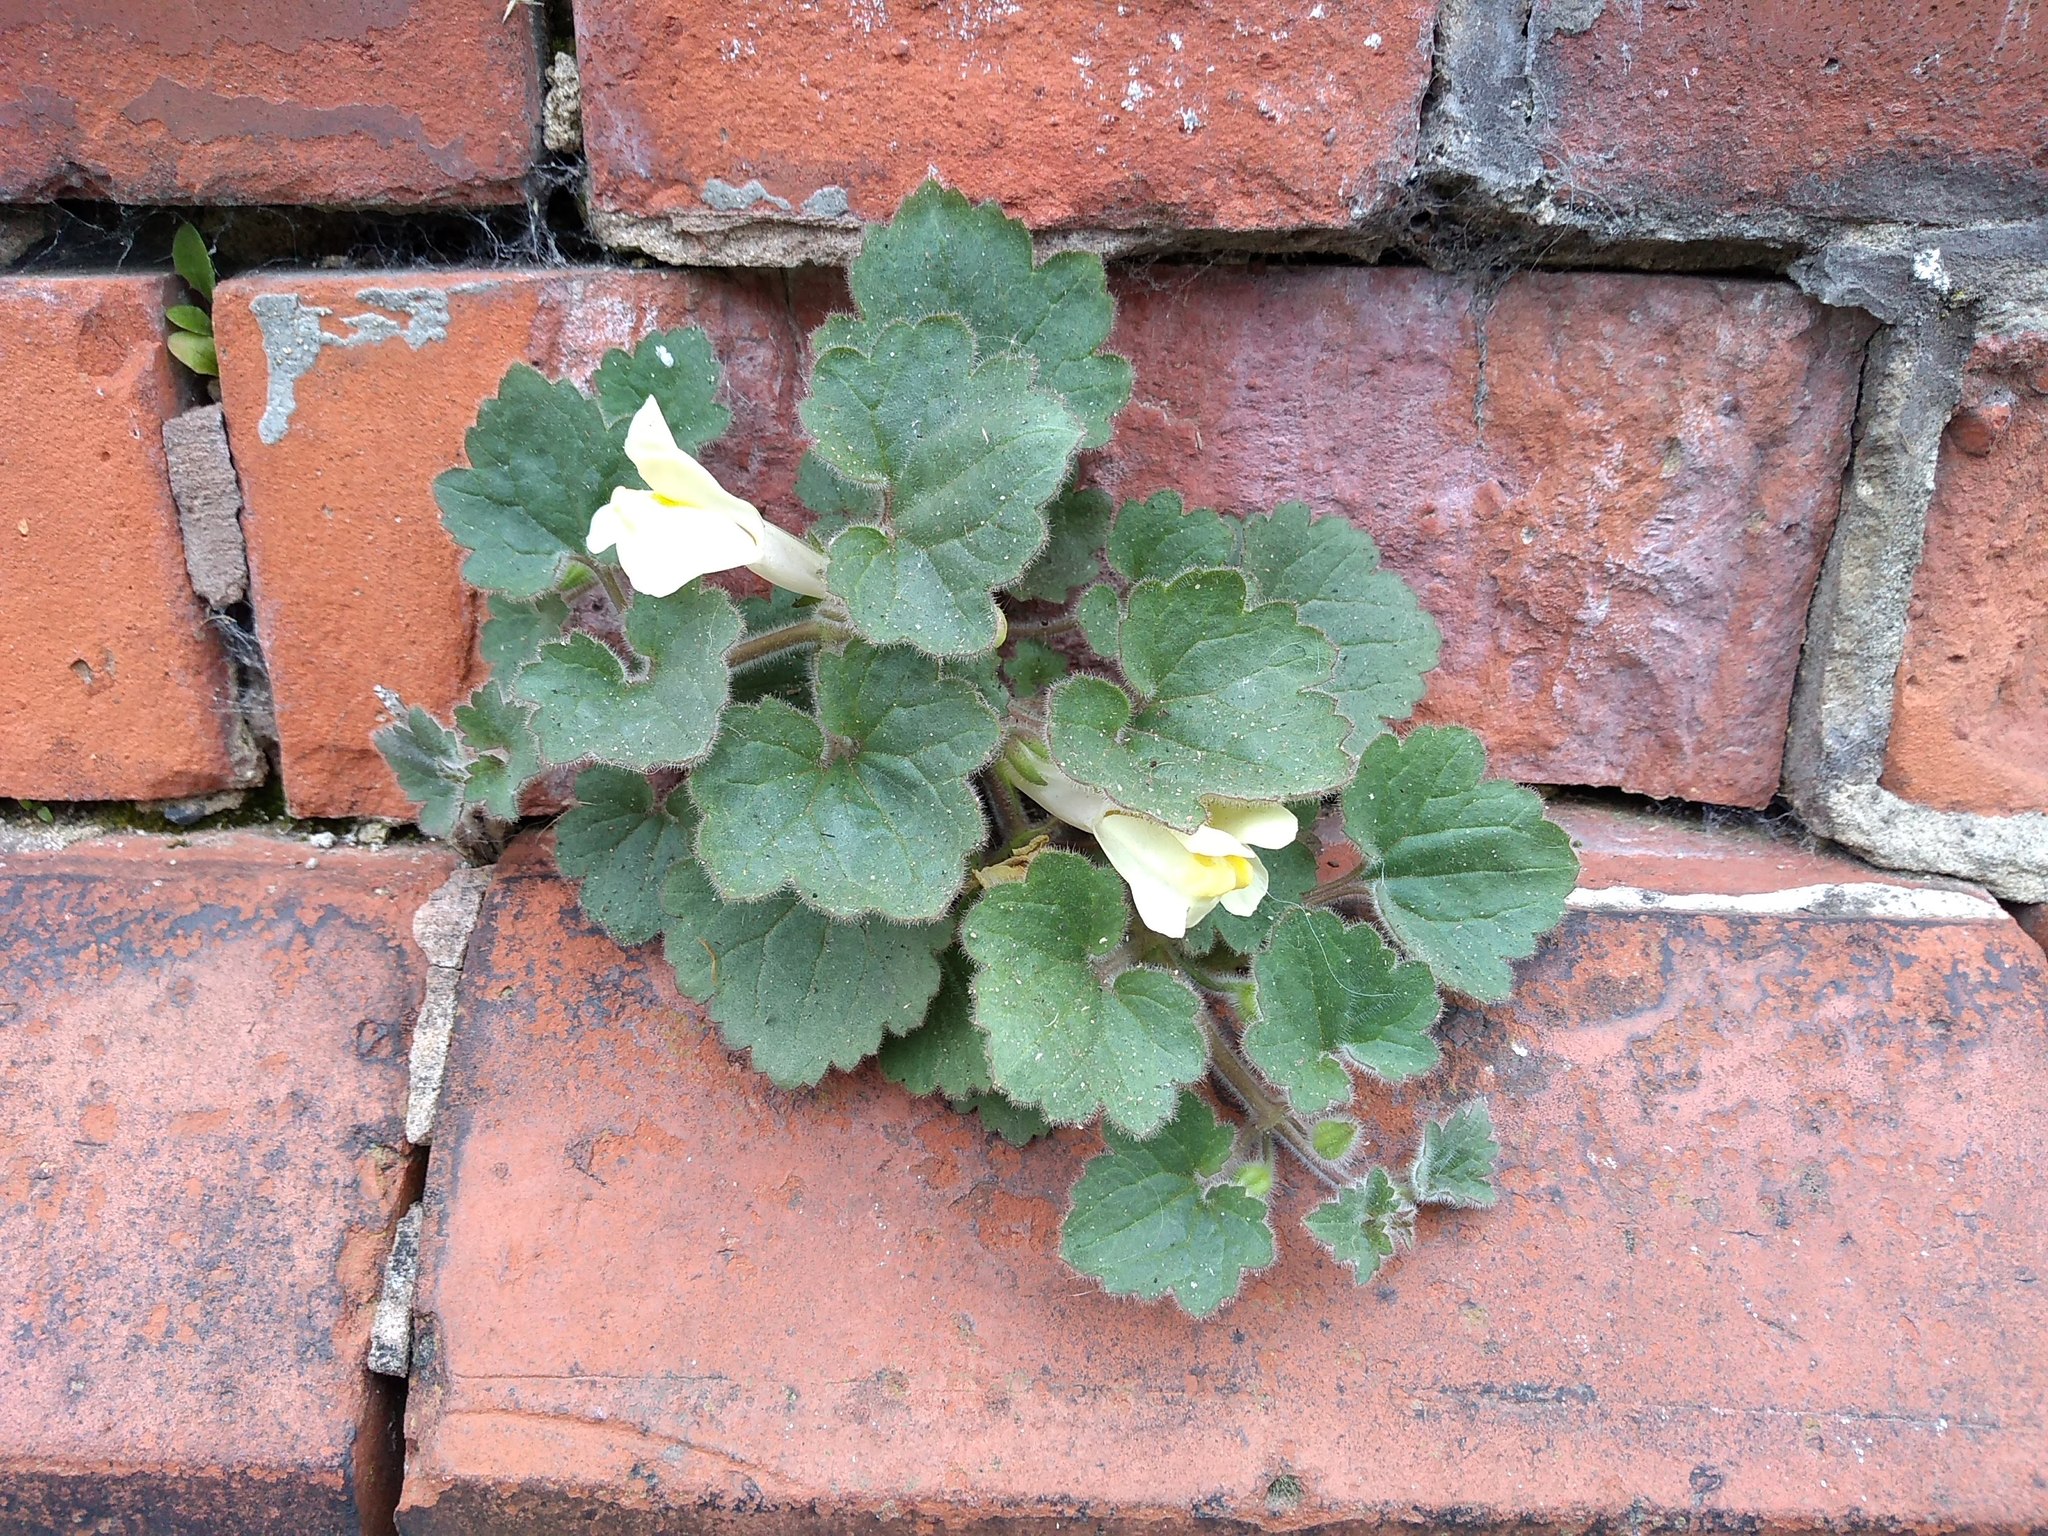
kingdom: Plantae
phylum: Tracheophyta
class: Magnoliopsida
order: Lamiales
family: Plantaginaceae
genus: Asarina
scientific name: Asarina procumbens
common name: Trailing snapdragon
